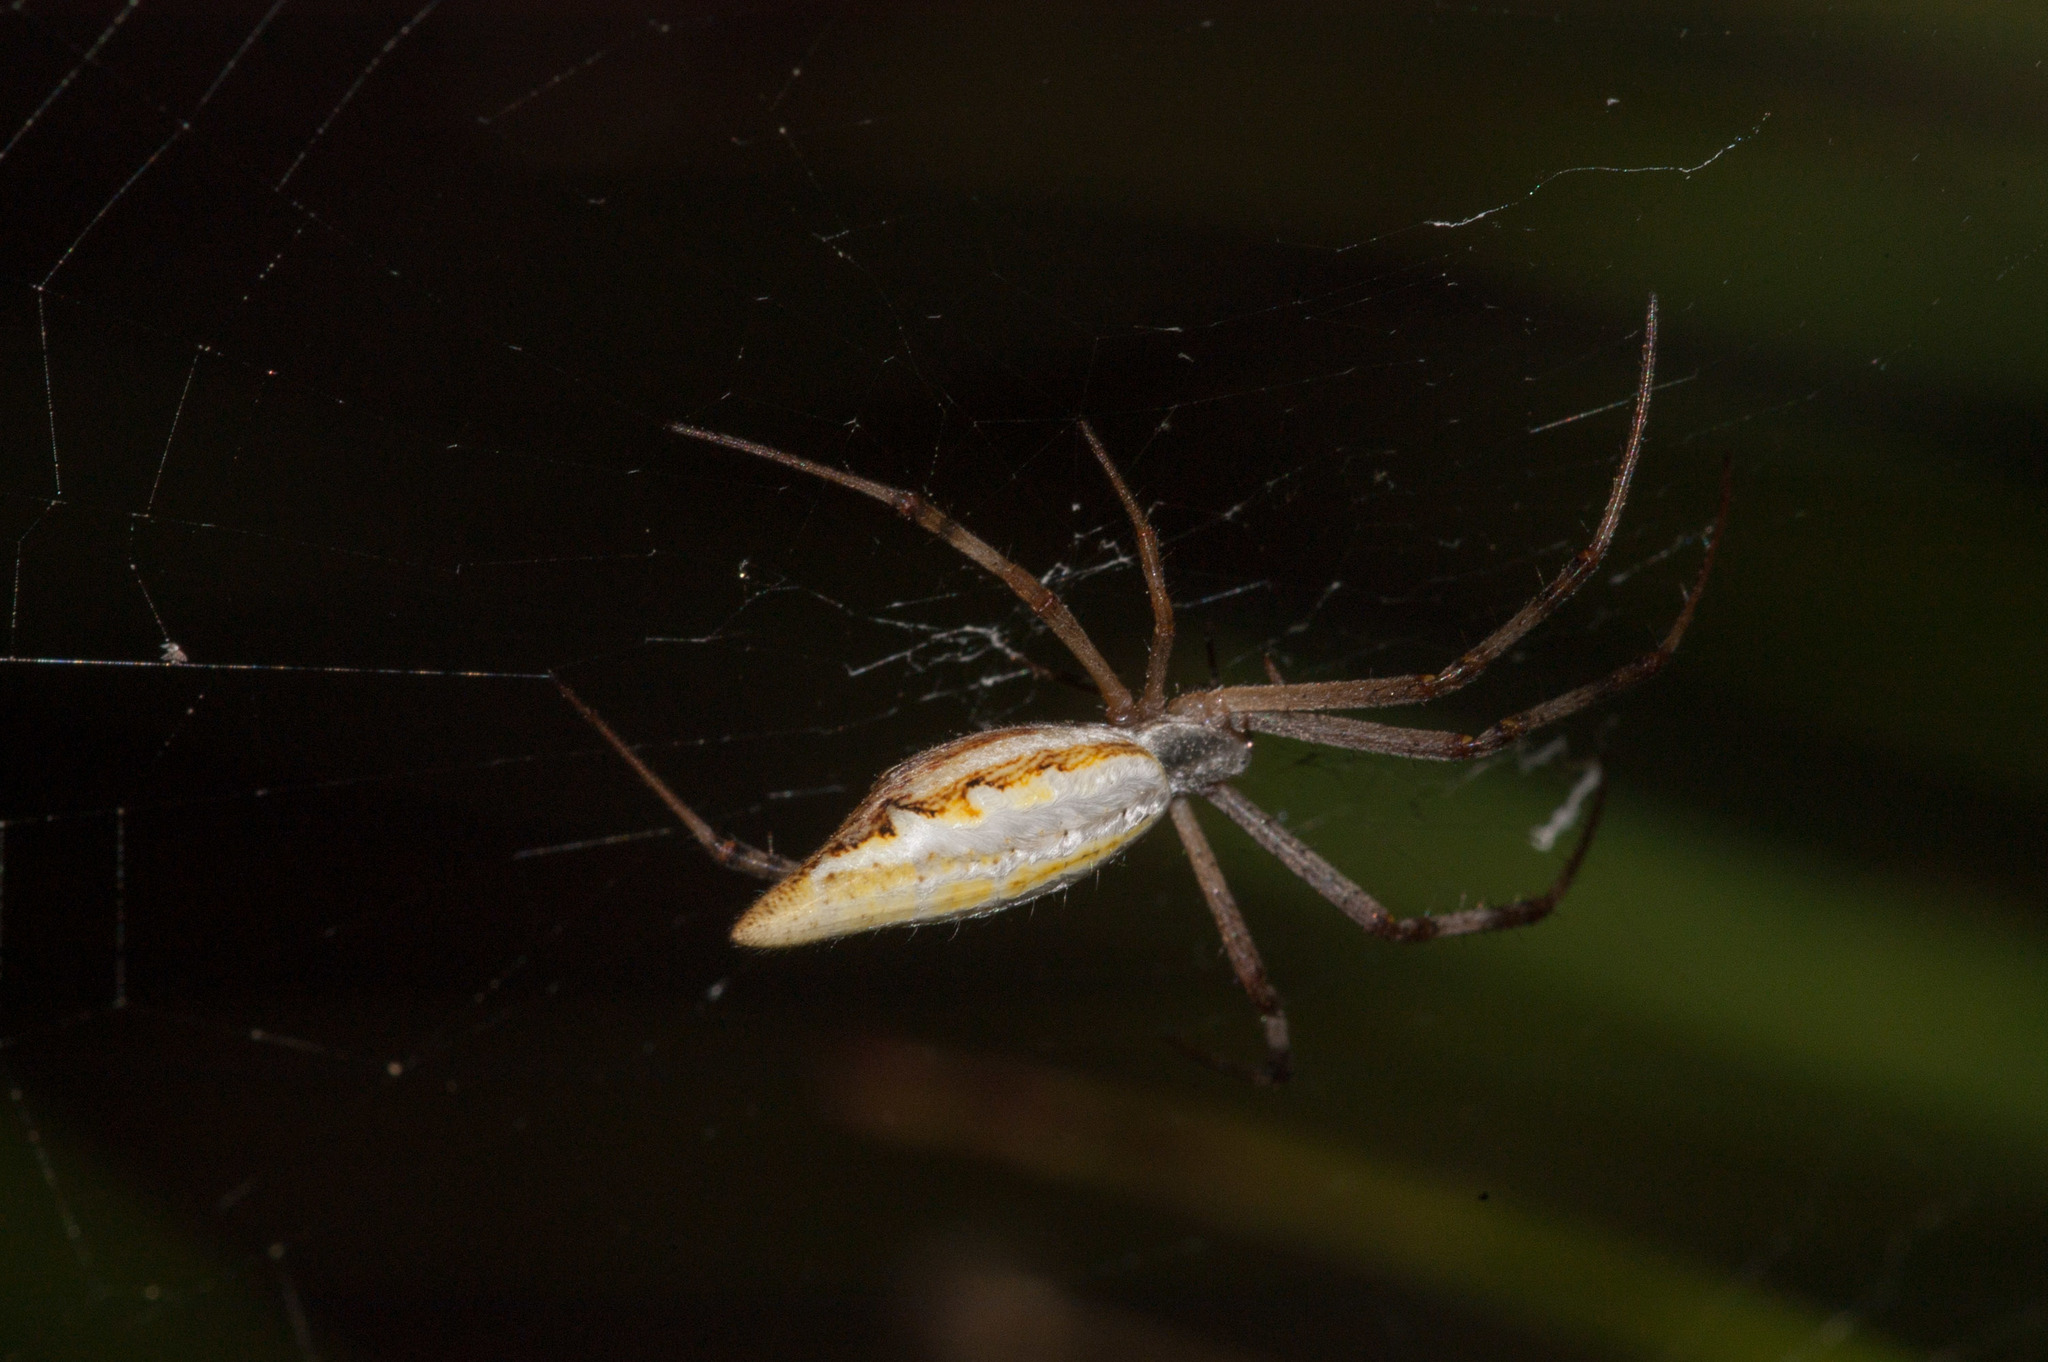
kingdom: Animalia
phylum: Arthropoda
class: Arachnida
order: Araneae
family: Araneidae
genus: Argiope
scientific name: Argiope protensa
